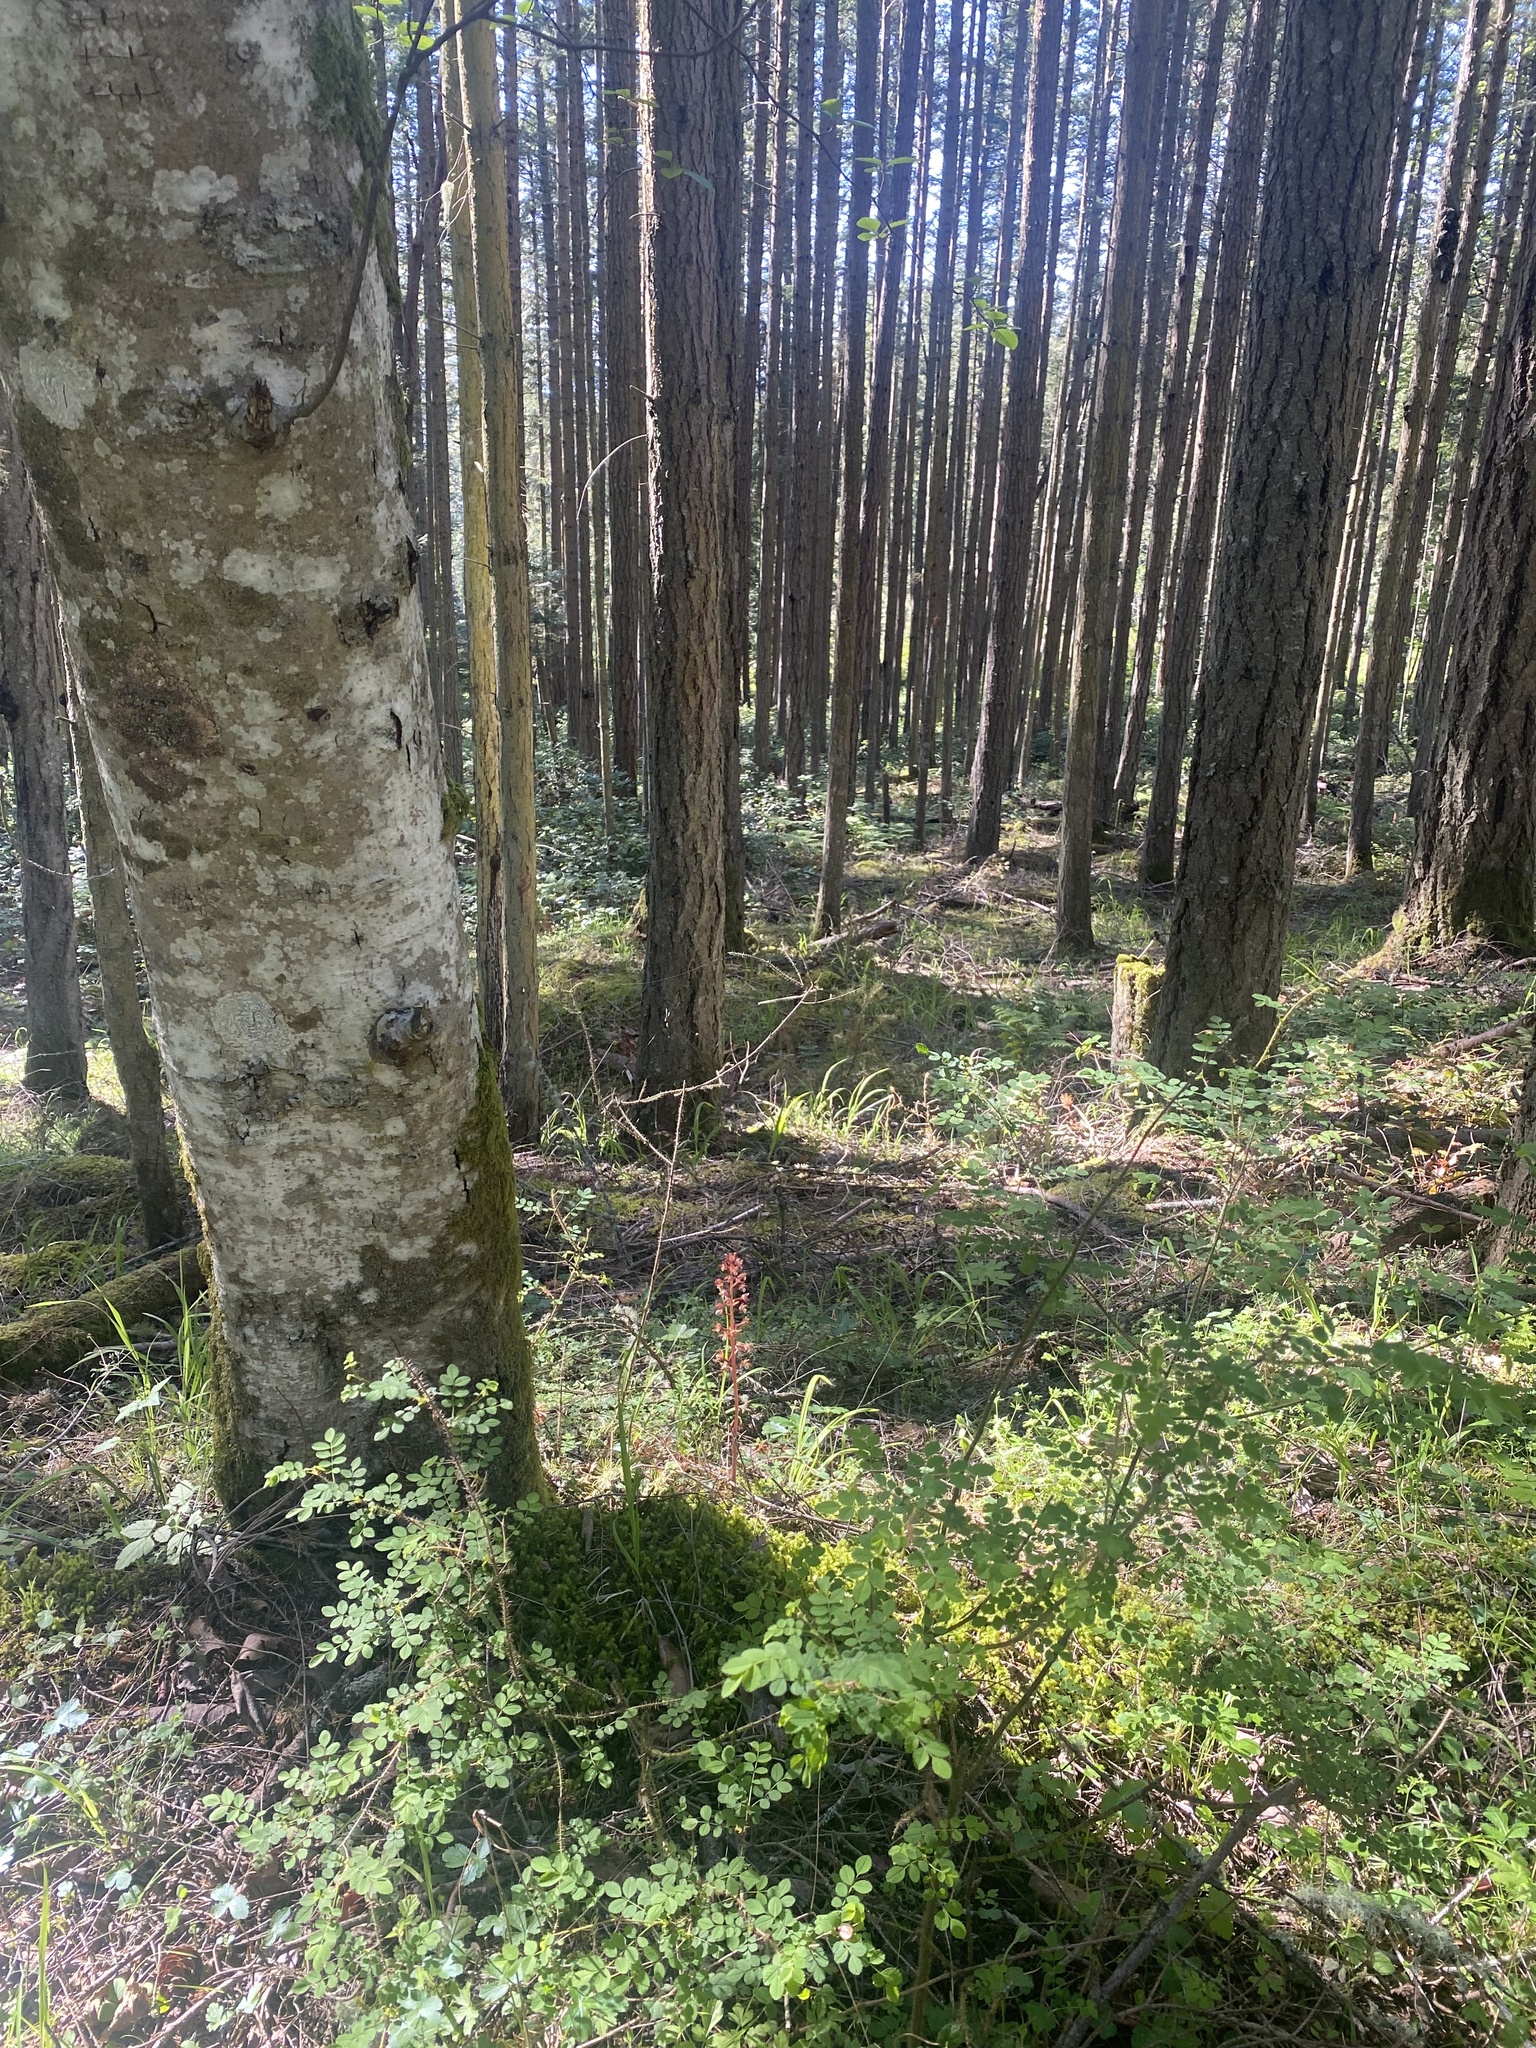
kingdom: Plantae
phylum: Tracheophyta
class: Liliopsida
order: Asparagales
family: Orchidaceae
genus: Corallorhiza
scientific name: Corallorhiza maculata
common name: Spotted coralroot
